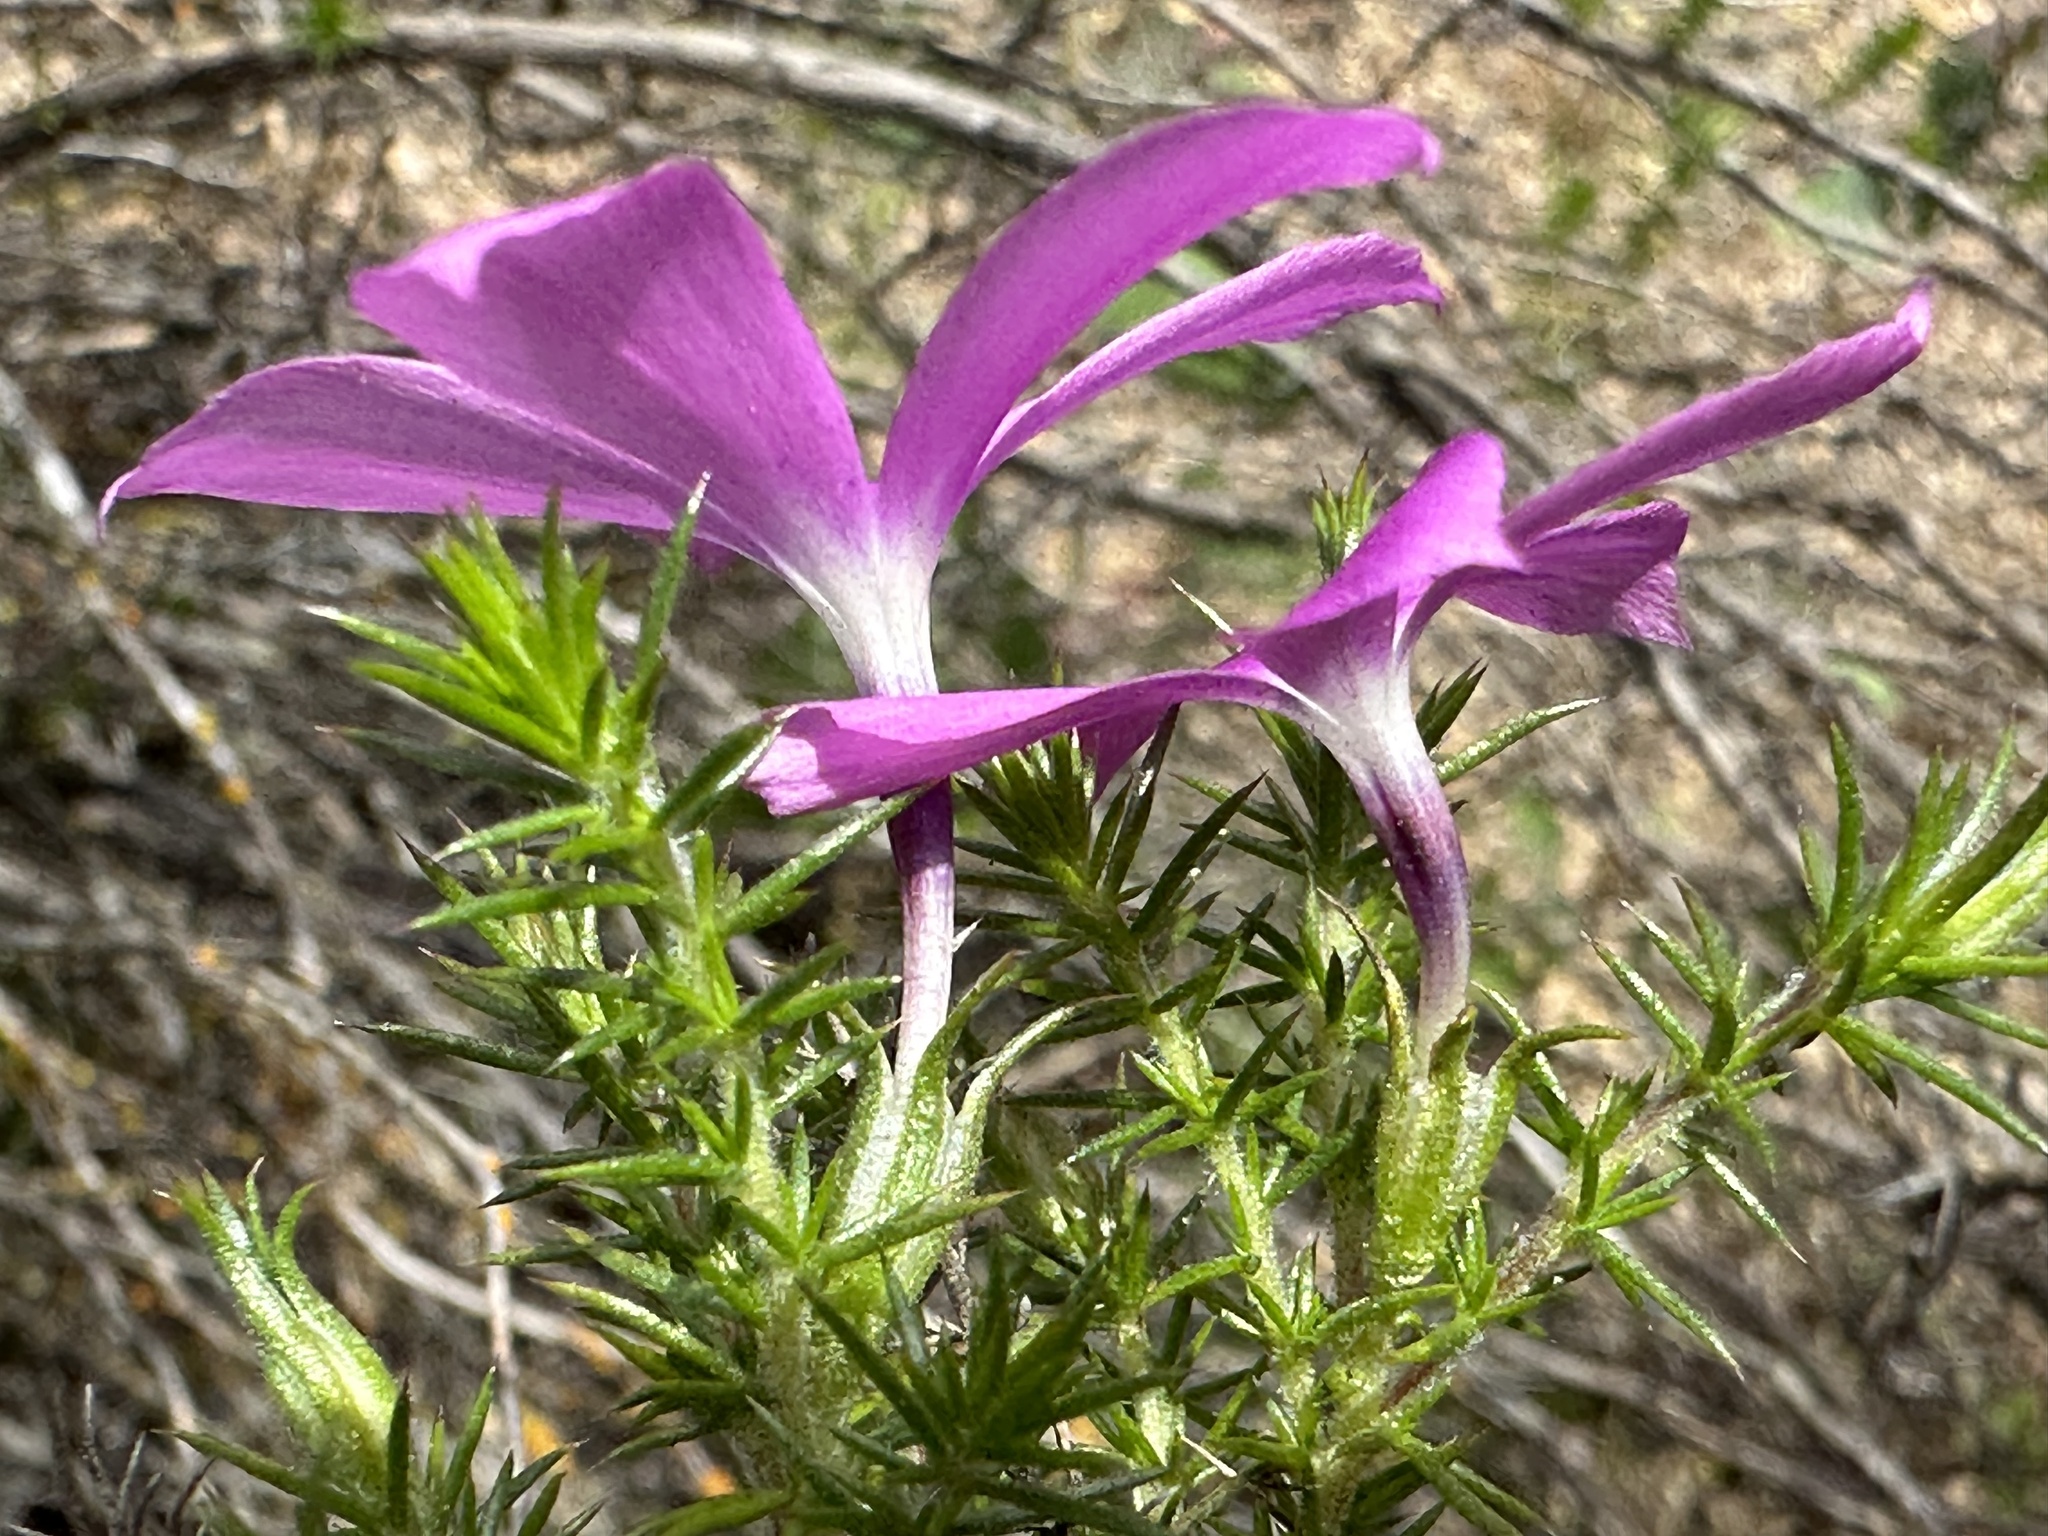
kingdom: Plantae
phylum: Tracheophyta
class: Magnoliopsida
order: Ericales
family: Polemoniaceae
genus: Linanthus
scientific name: Linanthus californicus
